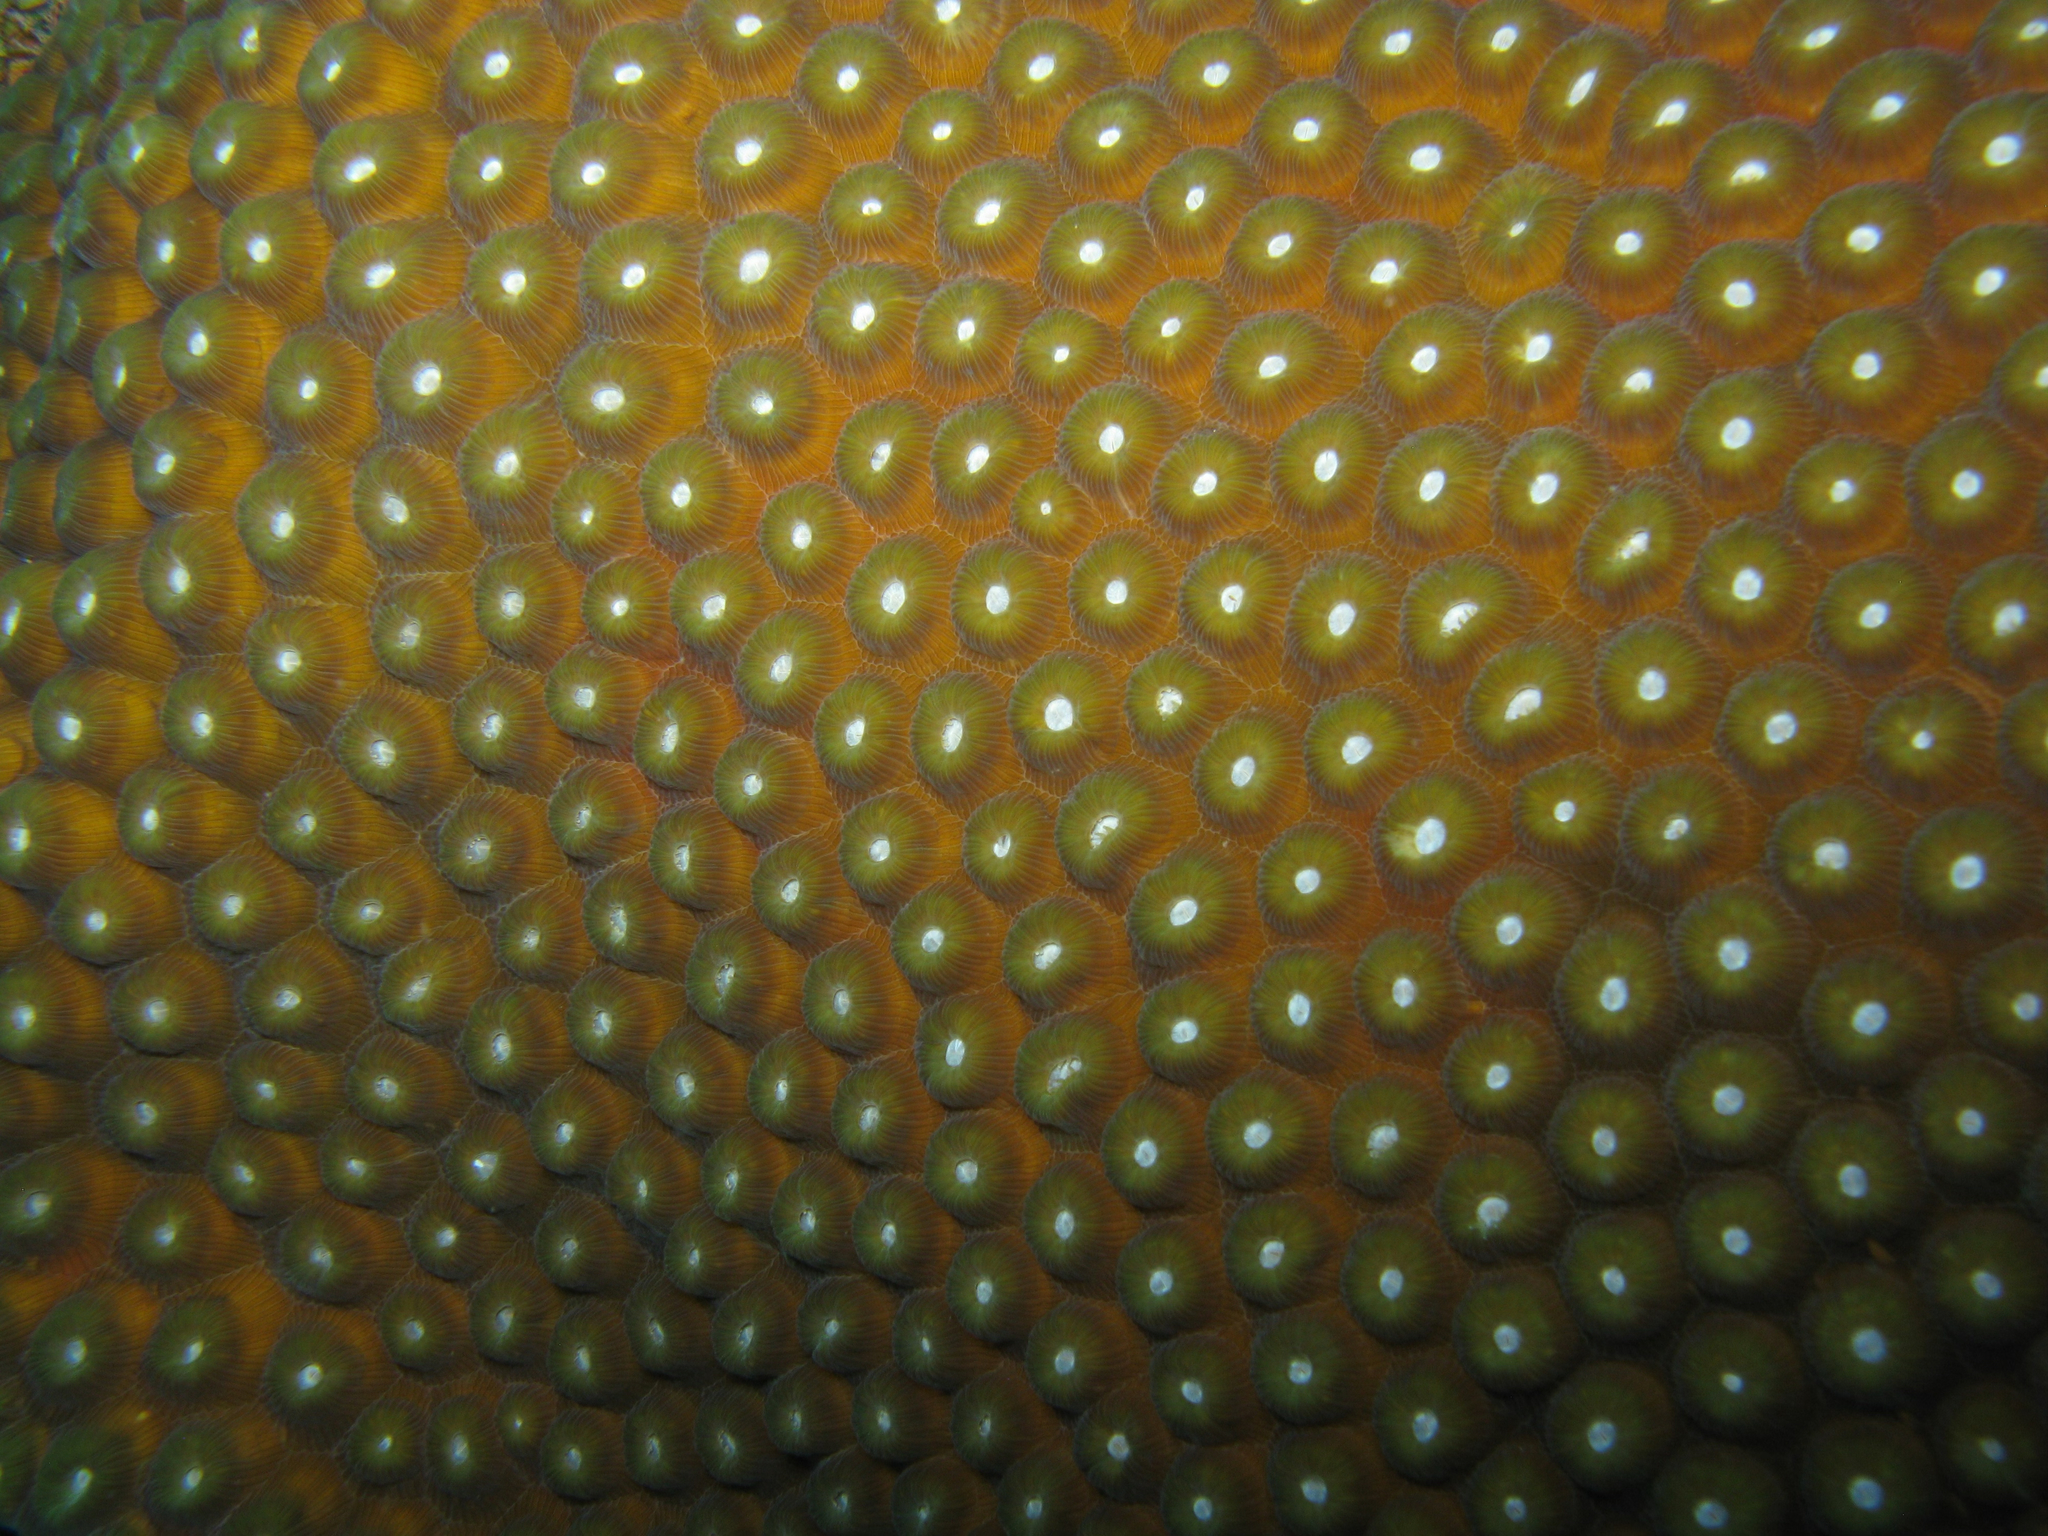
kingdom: Animalia
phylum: Cnidaria
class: Anthozoa
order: Scleractinia
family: Montastraeidae
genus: Montastraea
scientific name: Montastraea cavernosa
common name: Great star coral
